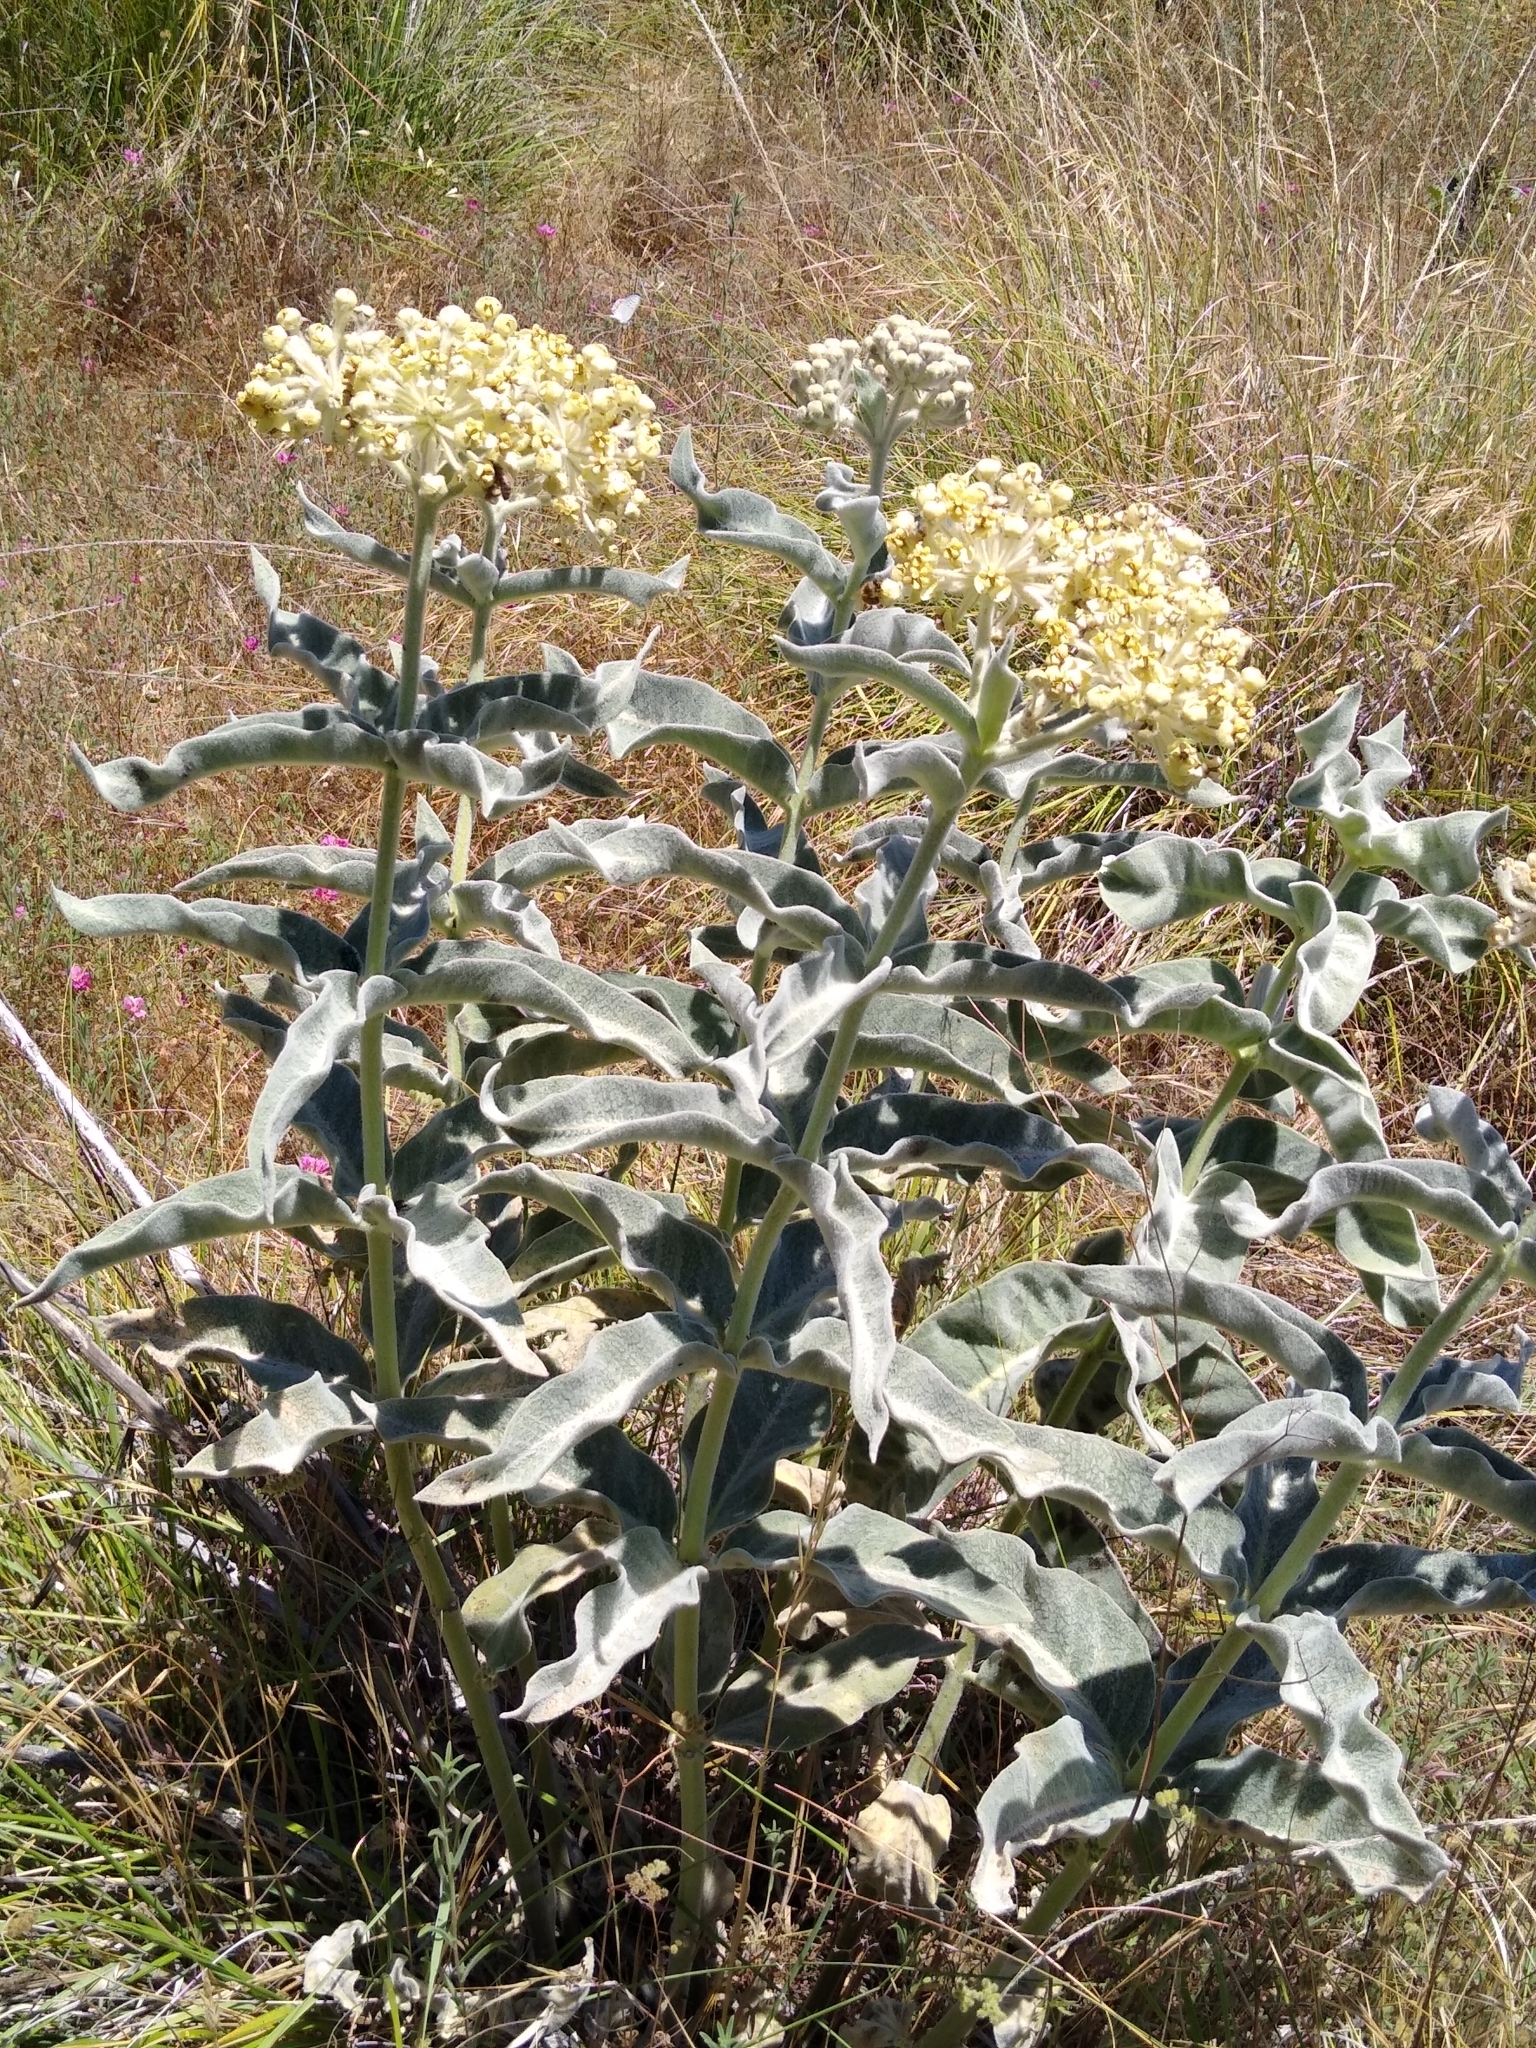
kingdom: Plantae
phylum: Tracheophyta
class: Magnoliopsida
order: Gentianales
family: Apocynaceae
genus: Asclepias
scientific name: Asclepias eriocarpa
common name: Indian milkweed
